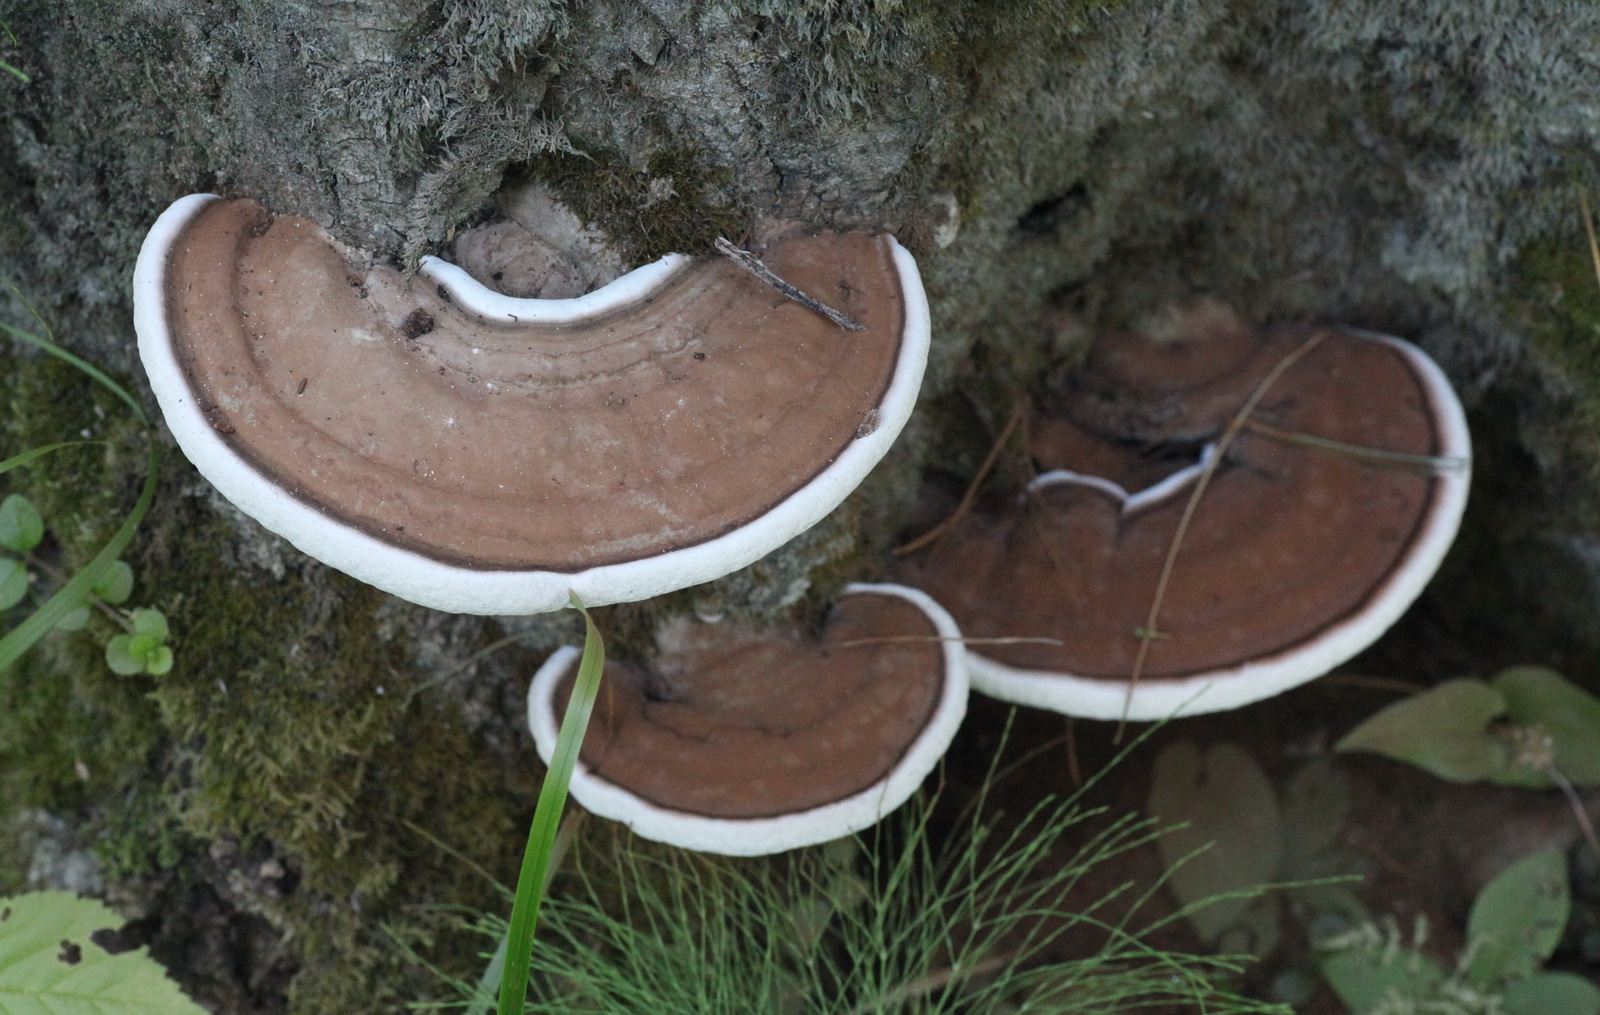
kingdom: Fungi
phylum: Basidiomycota
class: Agaricomycetes
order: Polyporales
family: Polyporaceae
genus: Ganoderma
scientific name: Ganoderma applanatum
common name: Artist's bracket
